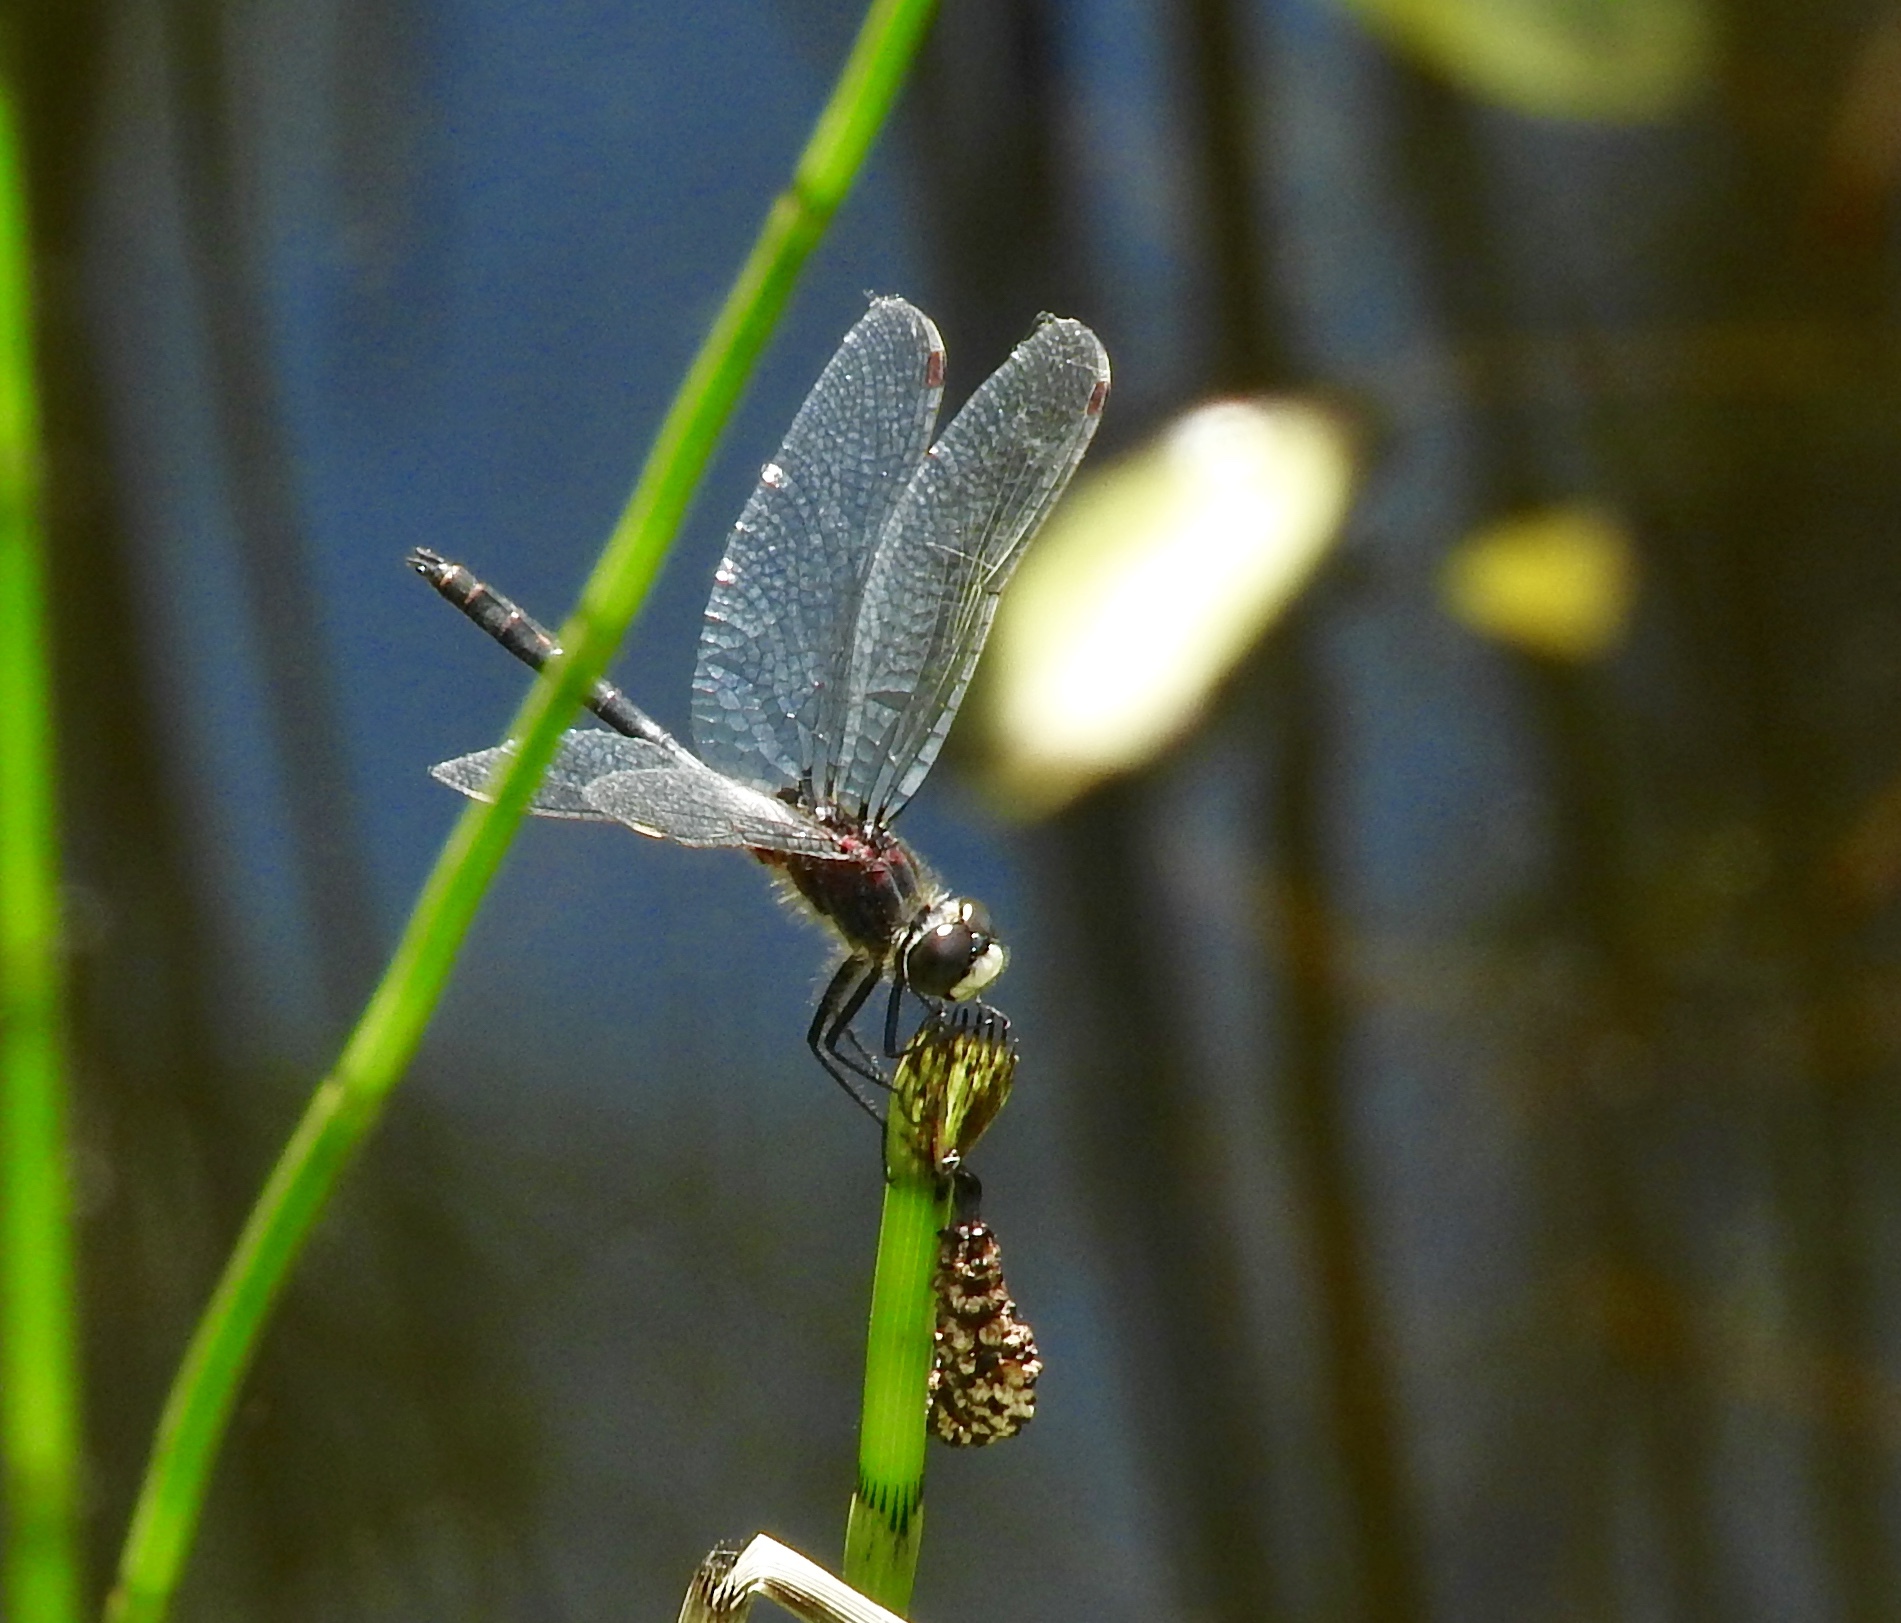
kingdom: Animalia
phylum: Arthropoda
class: Insecta
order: Odonata
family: Libellulidae
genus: Leucorrhinia
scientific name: Leucorrhinia proxima
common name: Belted whiteface
